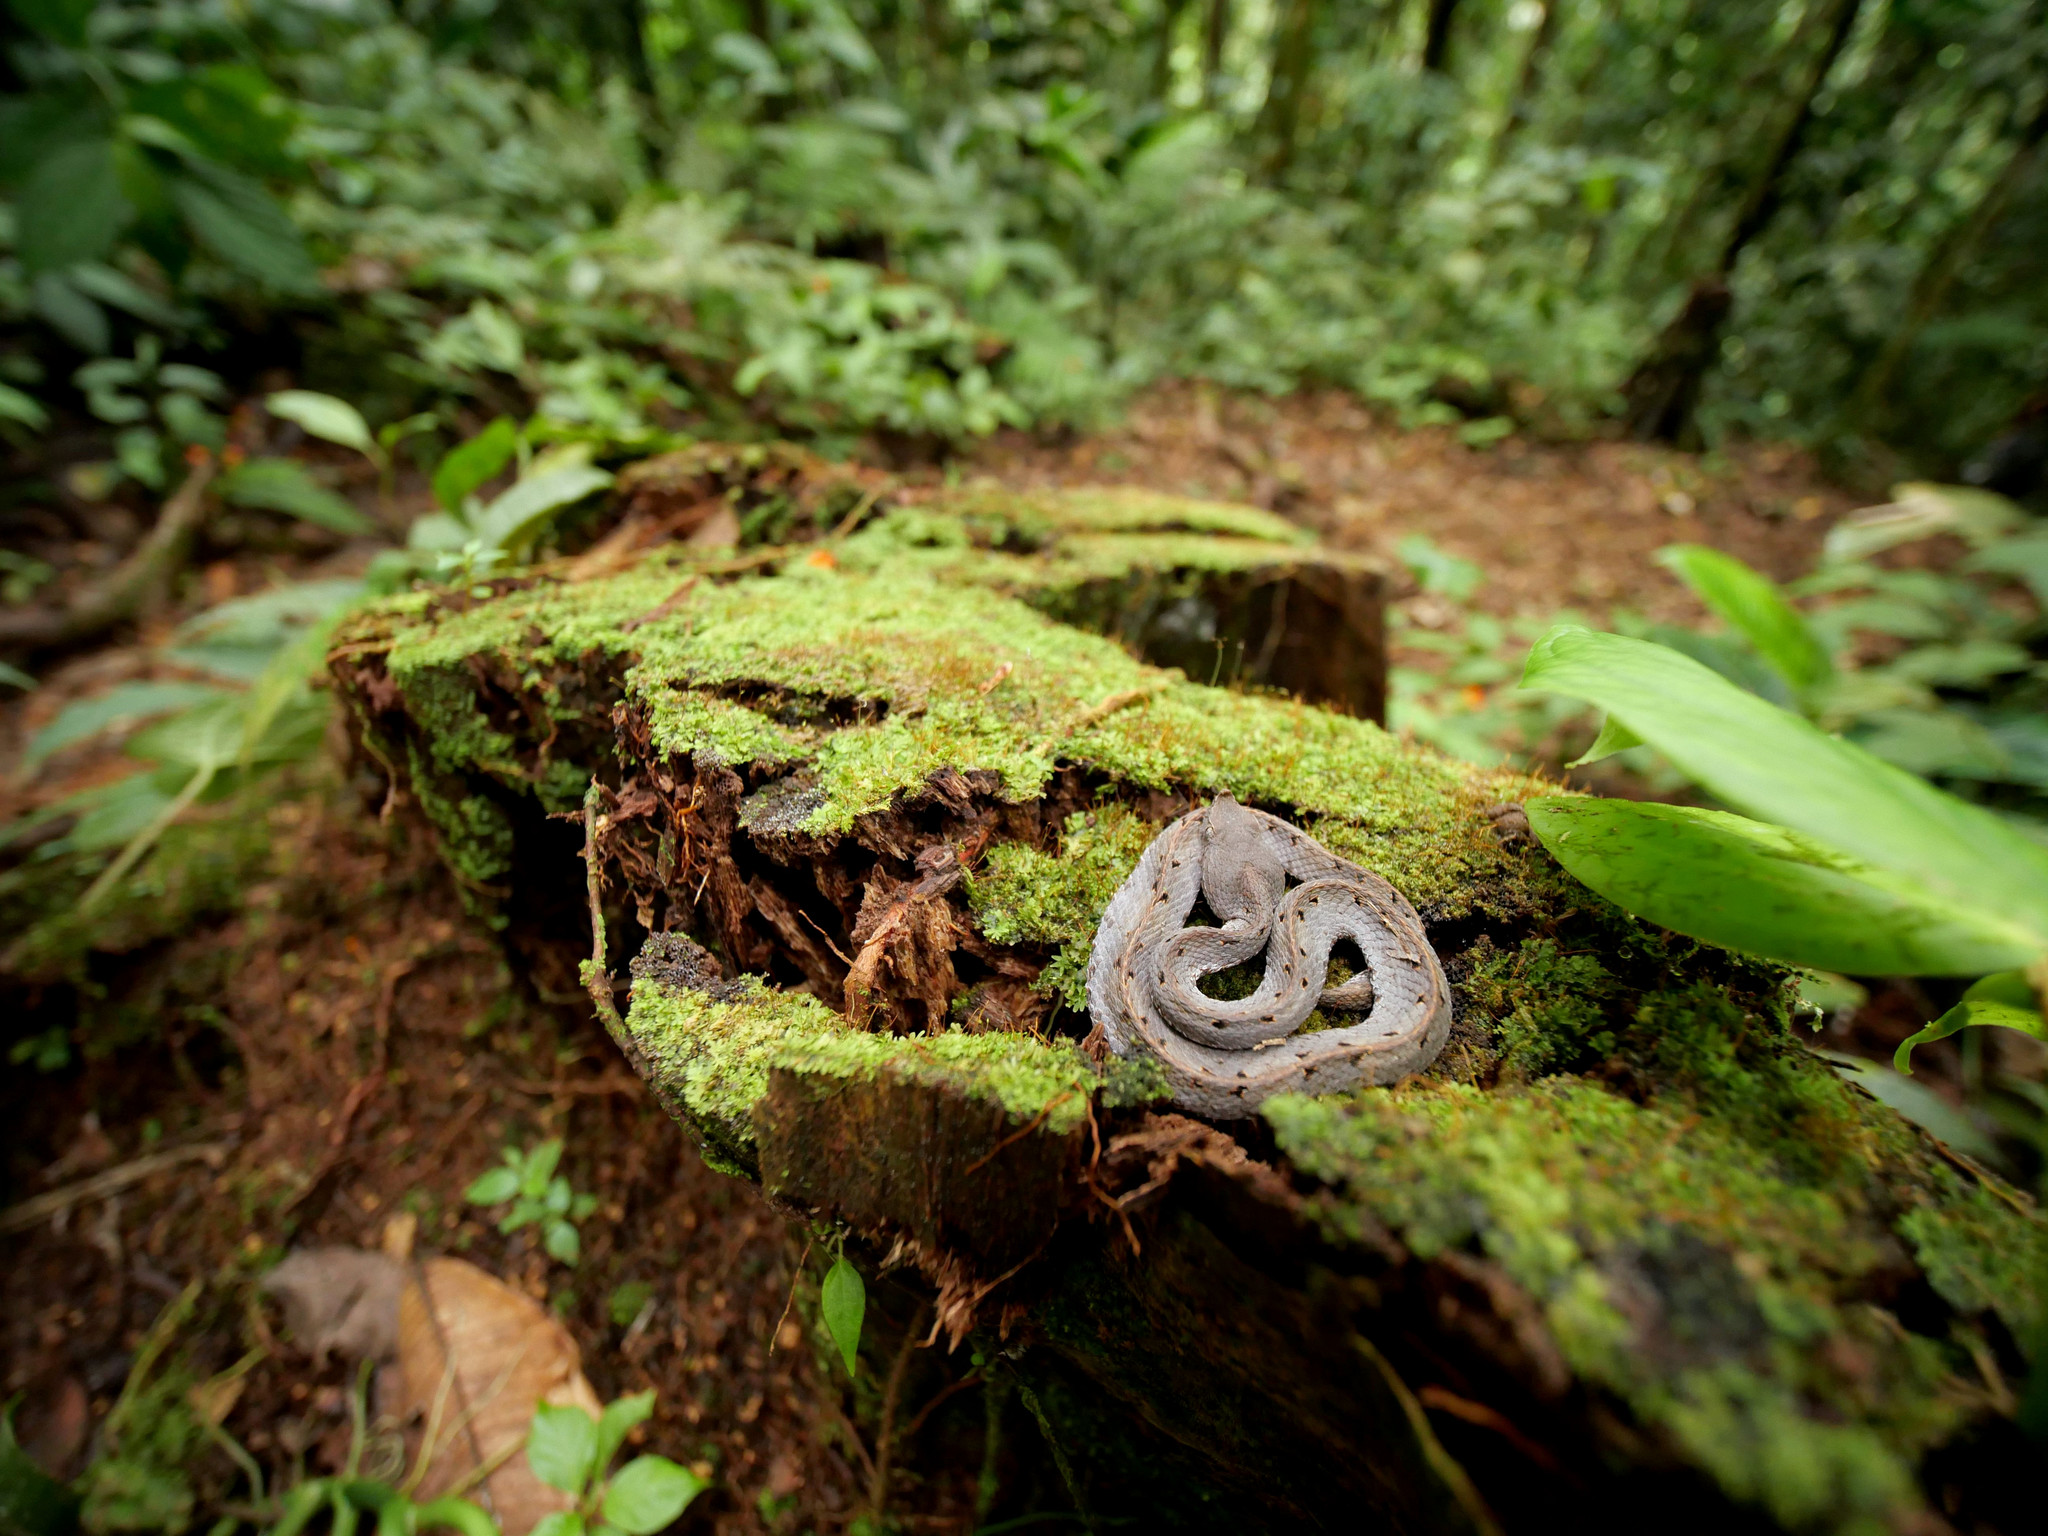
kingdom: Animalia
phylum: Chordata
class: Squamata
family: Viperidae
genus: Porthidium
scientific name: Porthidium nasutum
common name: Hognosed pit viper
